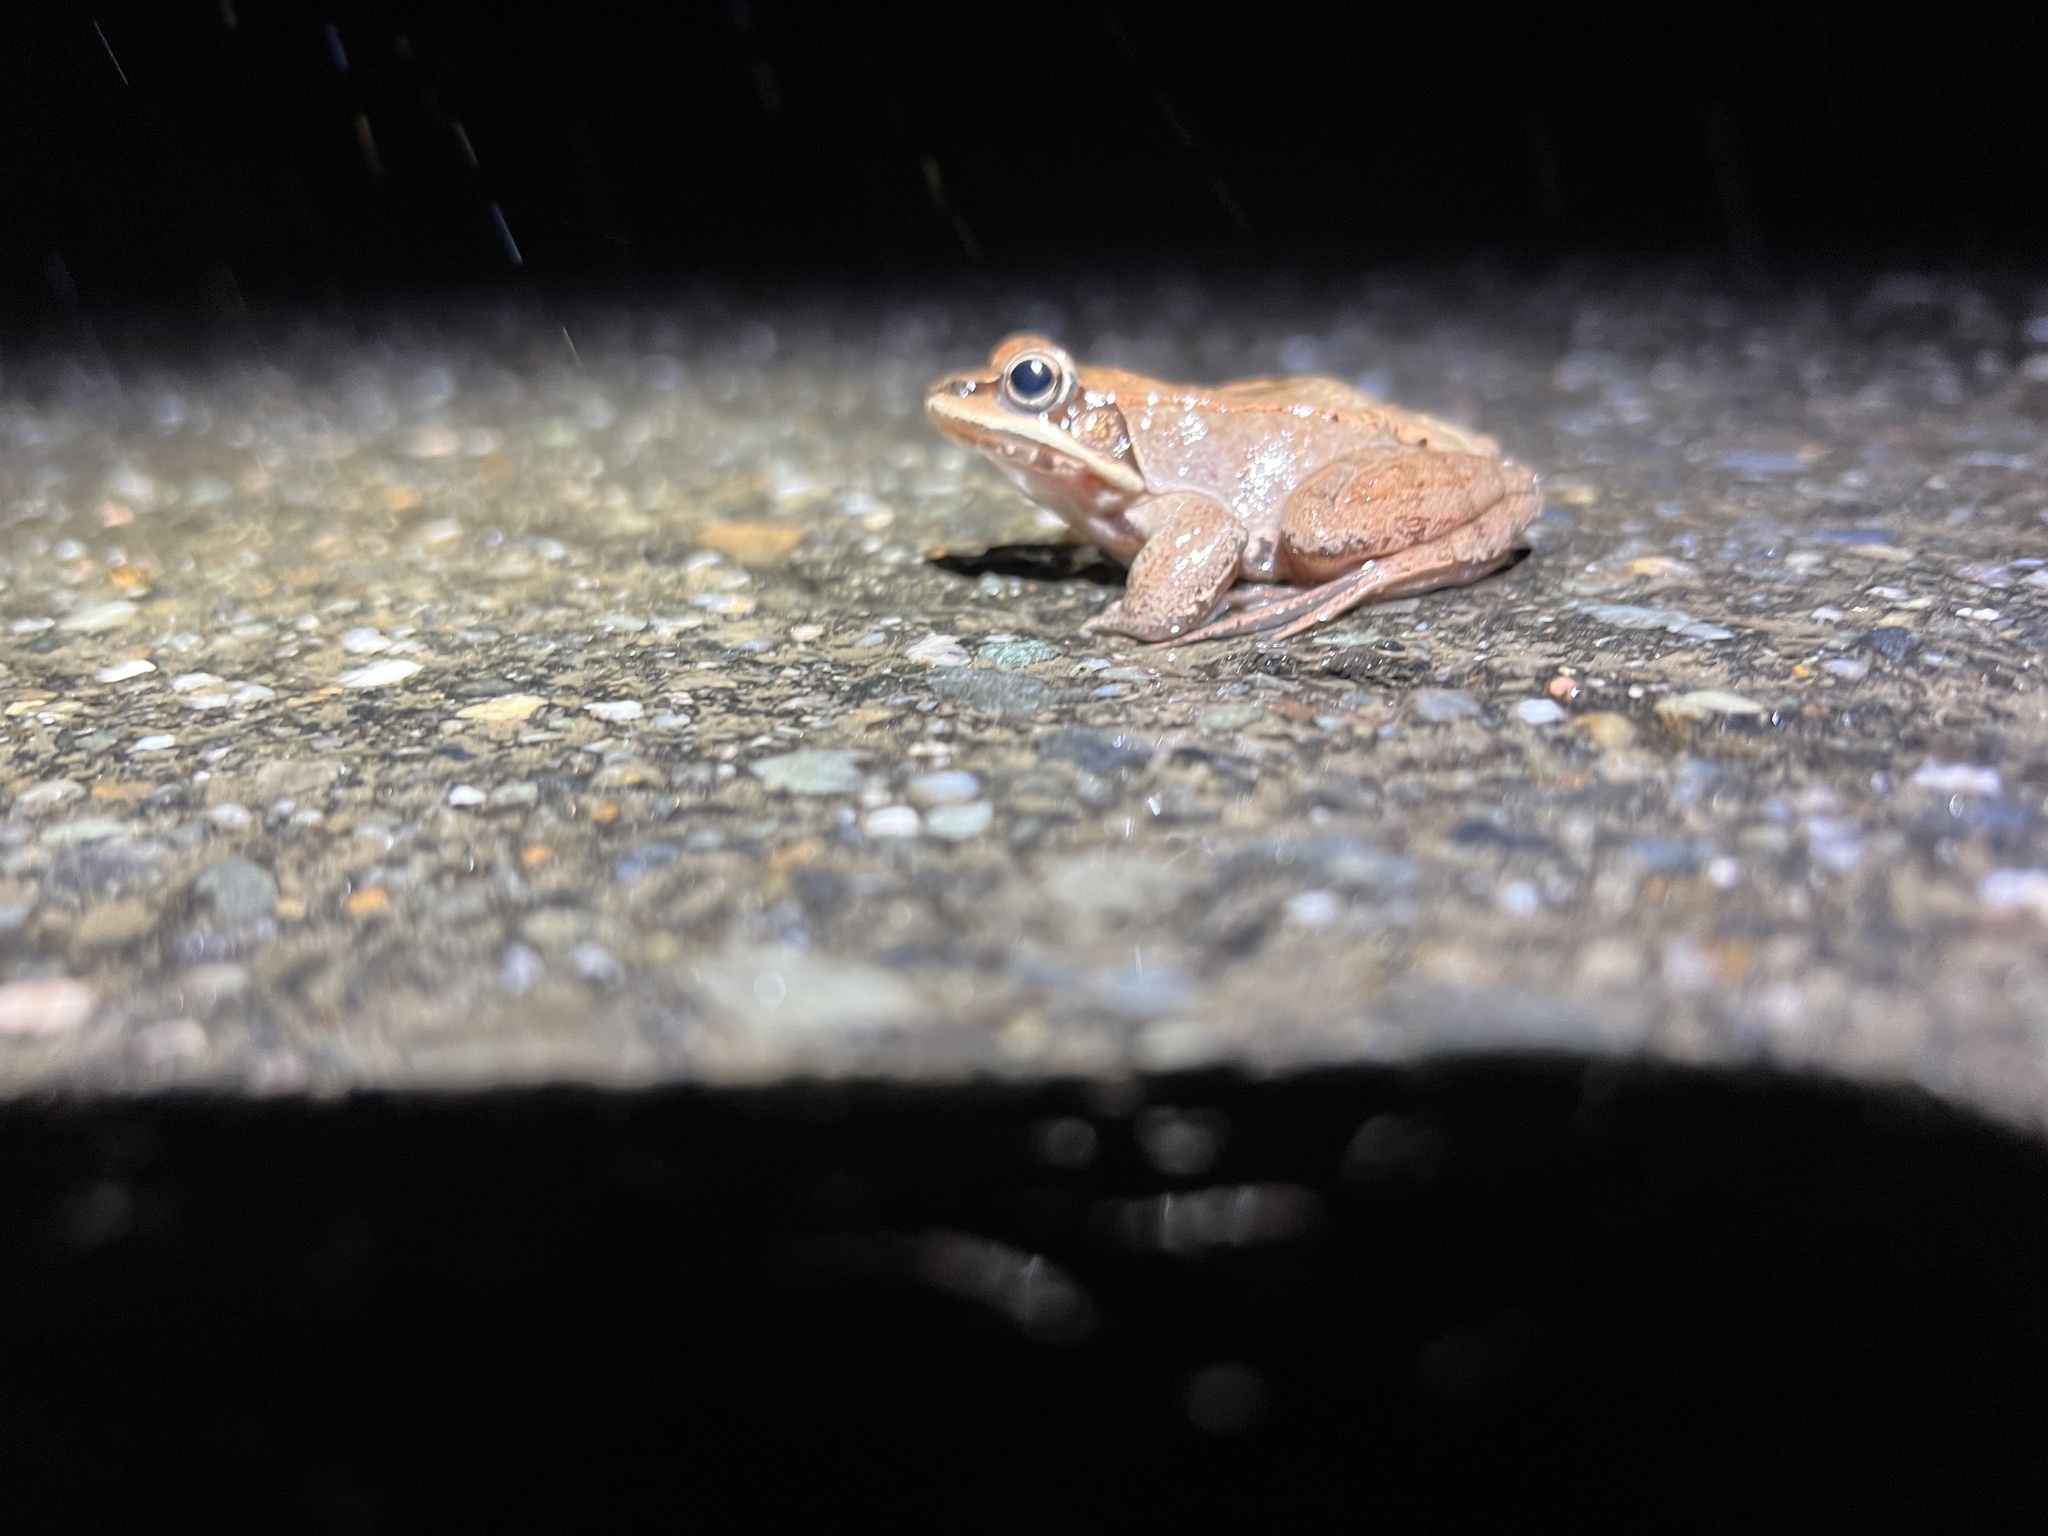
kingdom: Animalia
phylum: Chordata
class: Amphibia
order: Anura
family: Ranidae
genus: Lithobates
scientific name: Lithobates sylvaticus
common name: Wood frog
